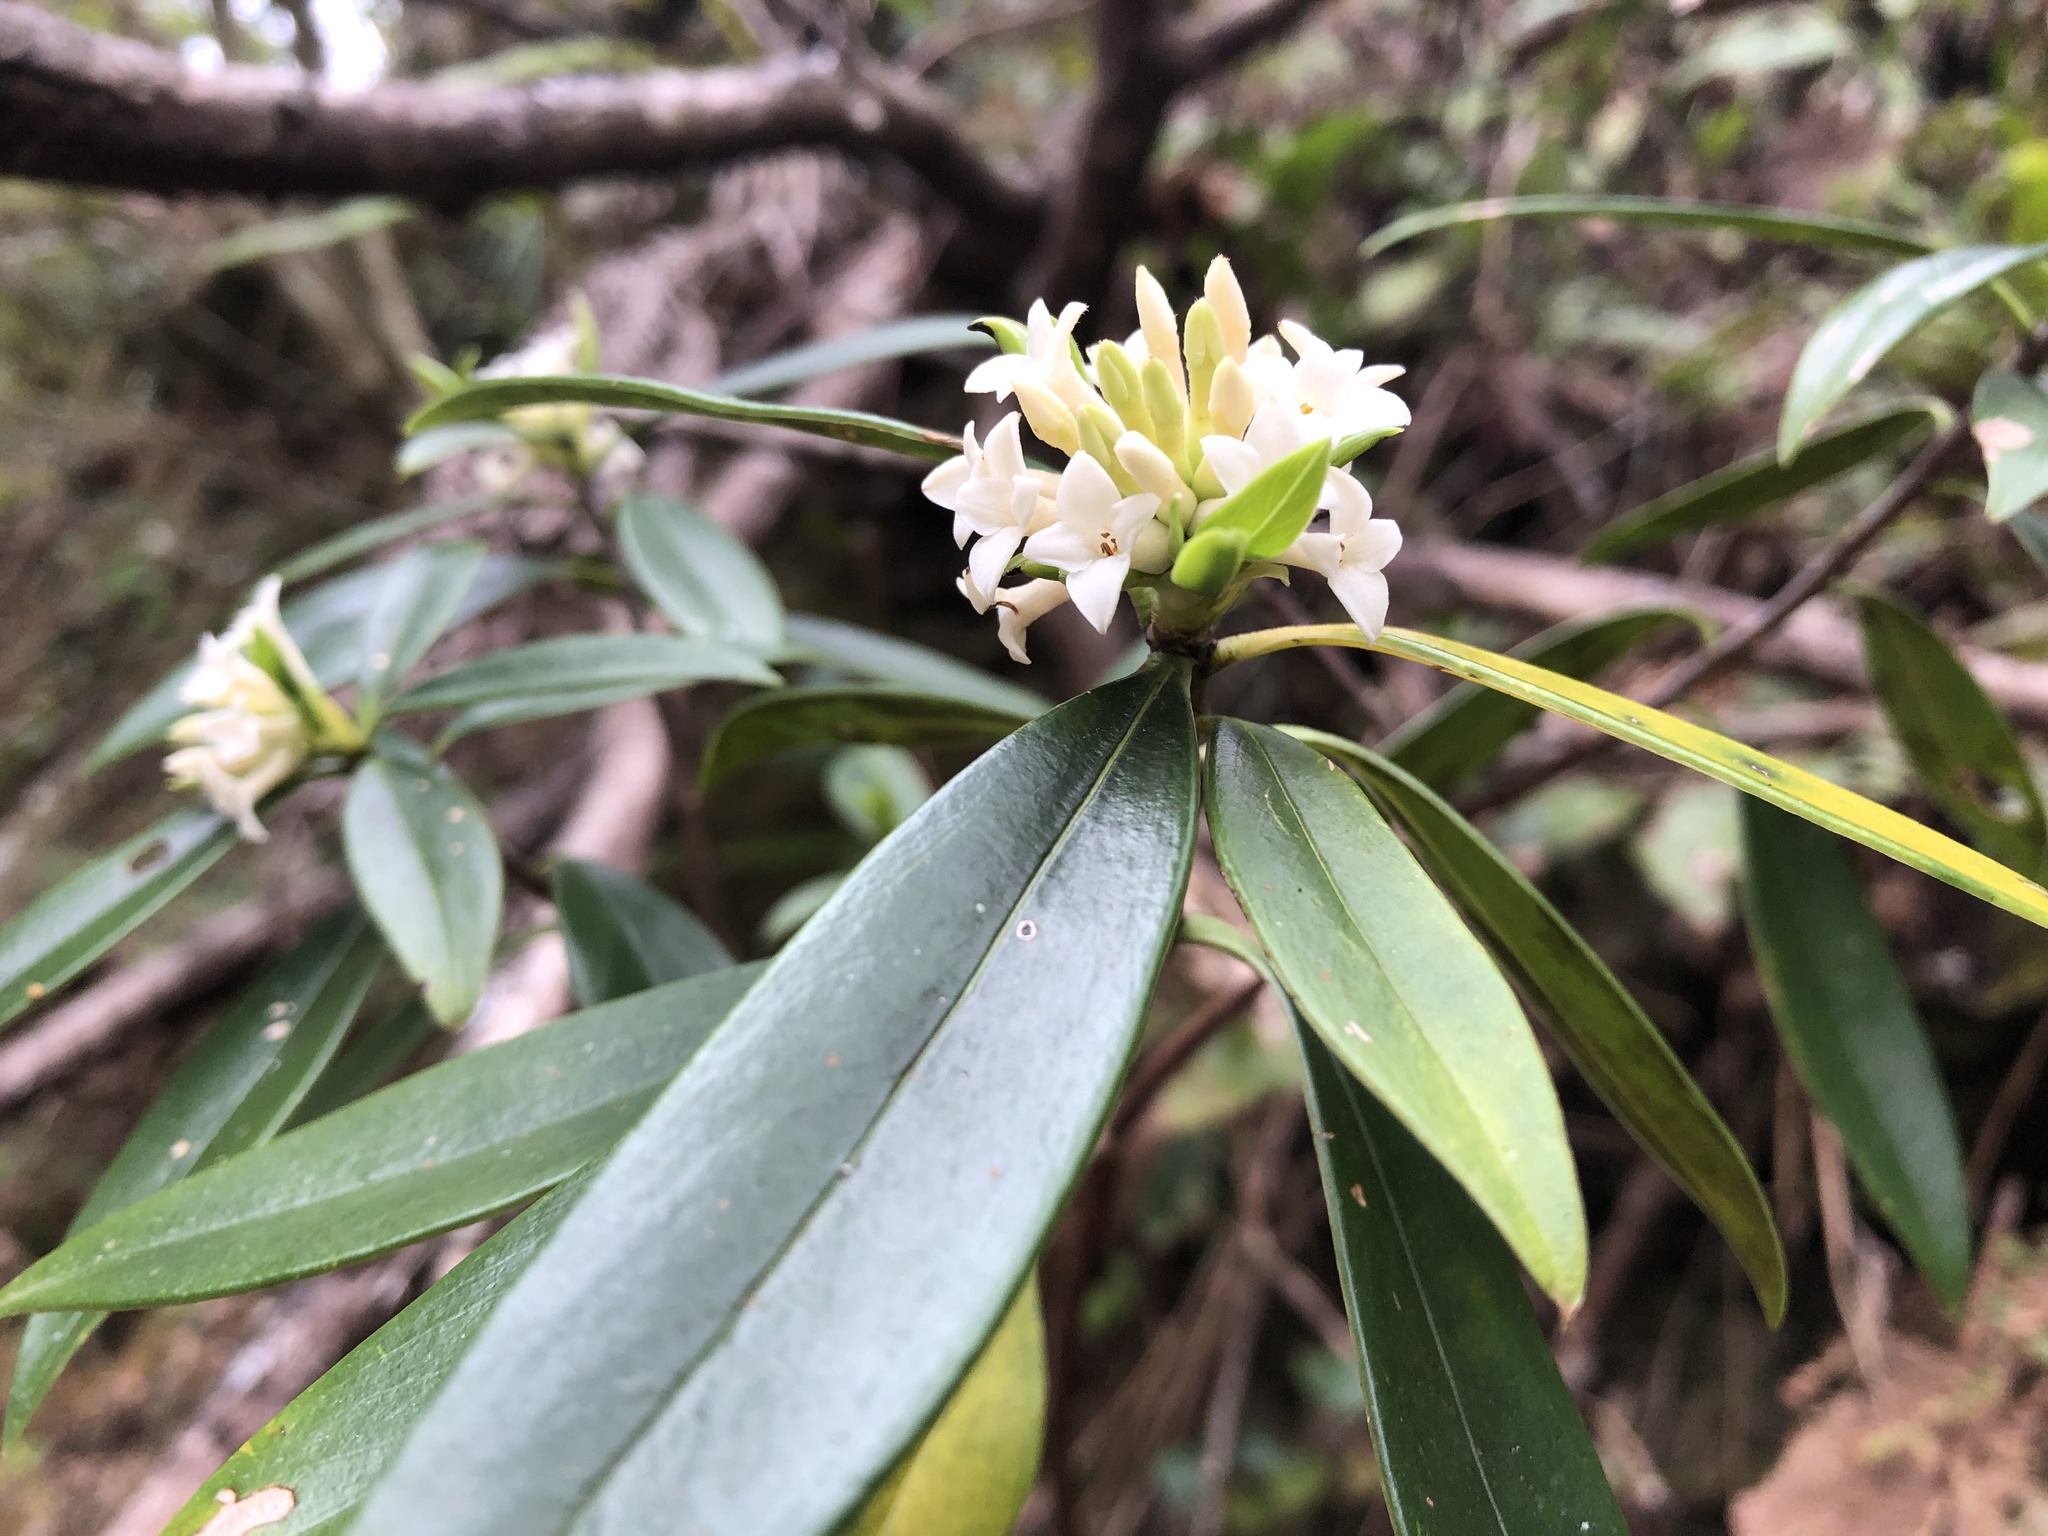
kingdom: Plantae
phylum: Tracheophyta
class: Magnoliopsida
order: Malvales
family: Thymelaeaceae
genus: Daphne
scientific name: Daphne kiusiana
